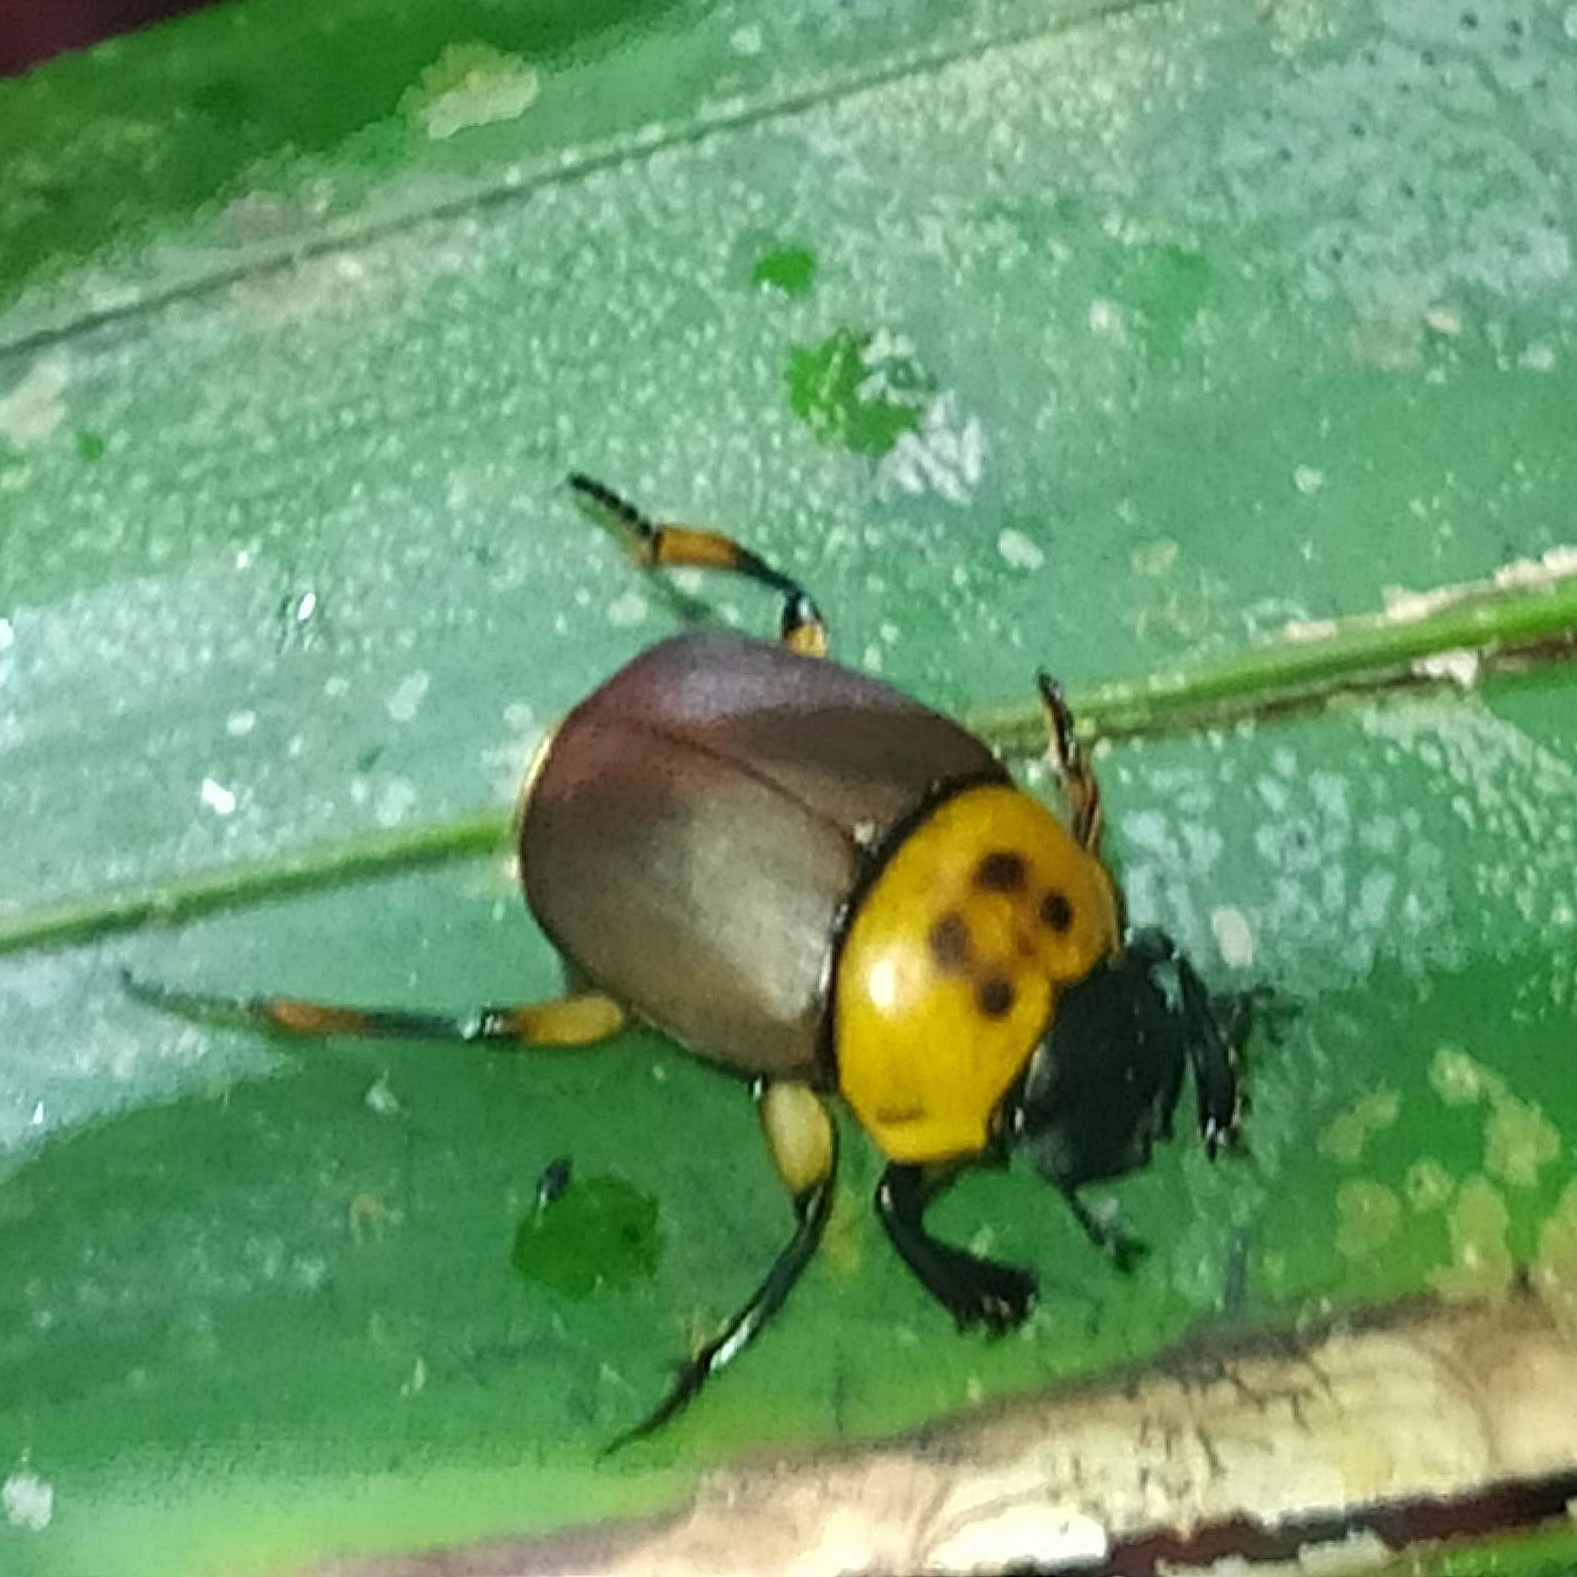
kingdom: Animalia
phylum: Arthropoda
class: Insecta
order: Coleoptera
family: Scarabaeidae
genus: Canthon
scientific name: Canthon triangularis
